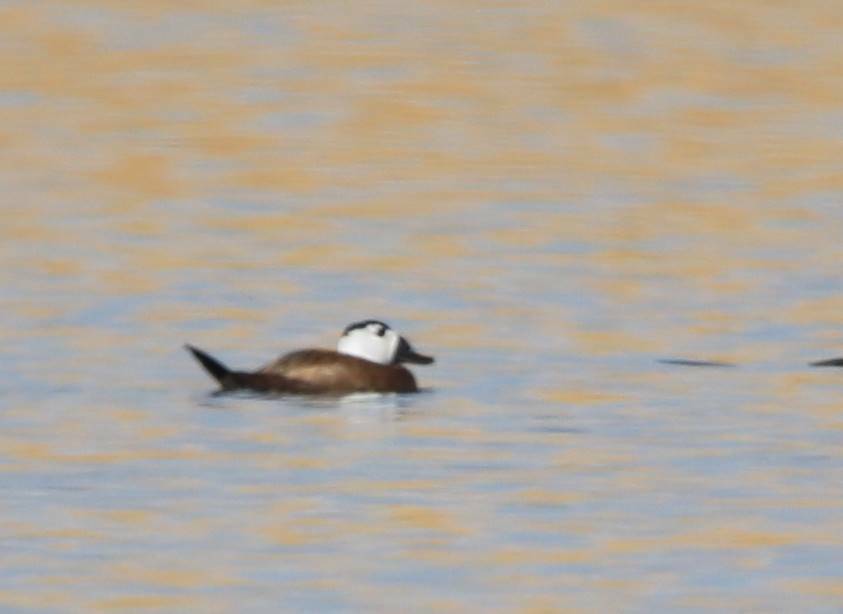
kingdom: Animalia
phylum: Chordata
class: Aves
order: Anseriformes
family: Anatidae
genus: Oxyura
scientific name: Oxyura leucocephala
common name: White-headed duck
